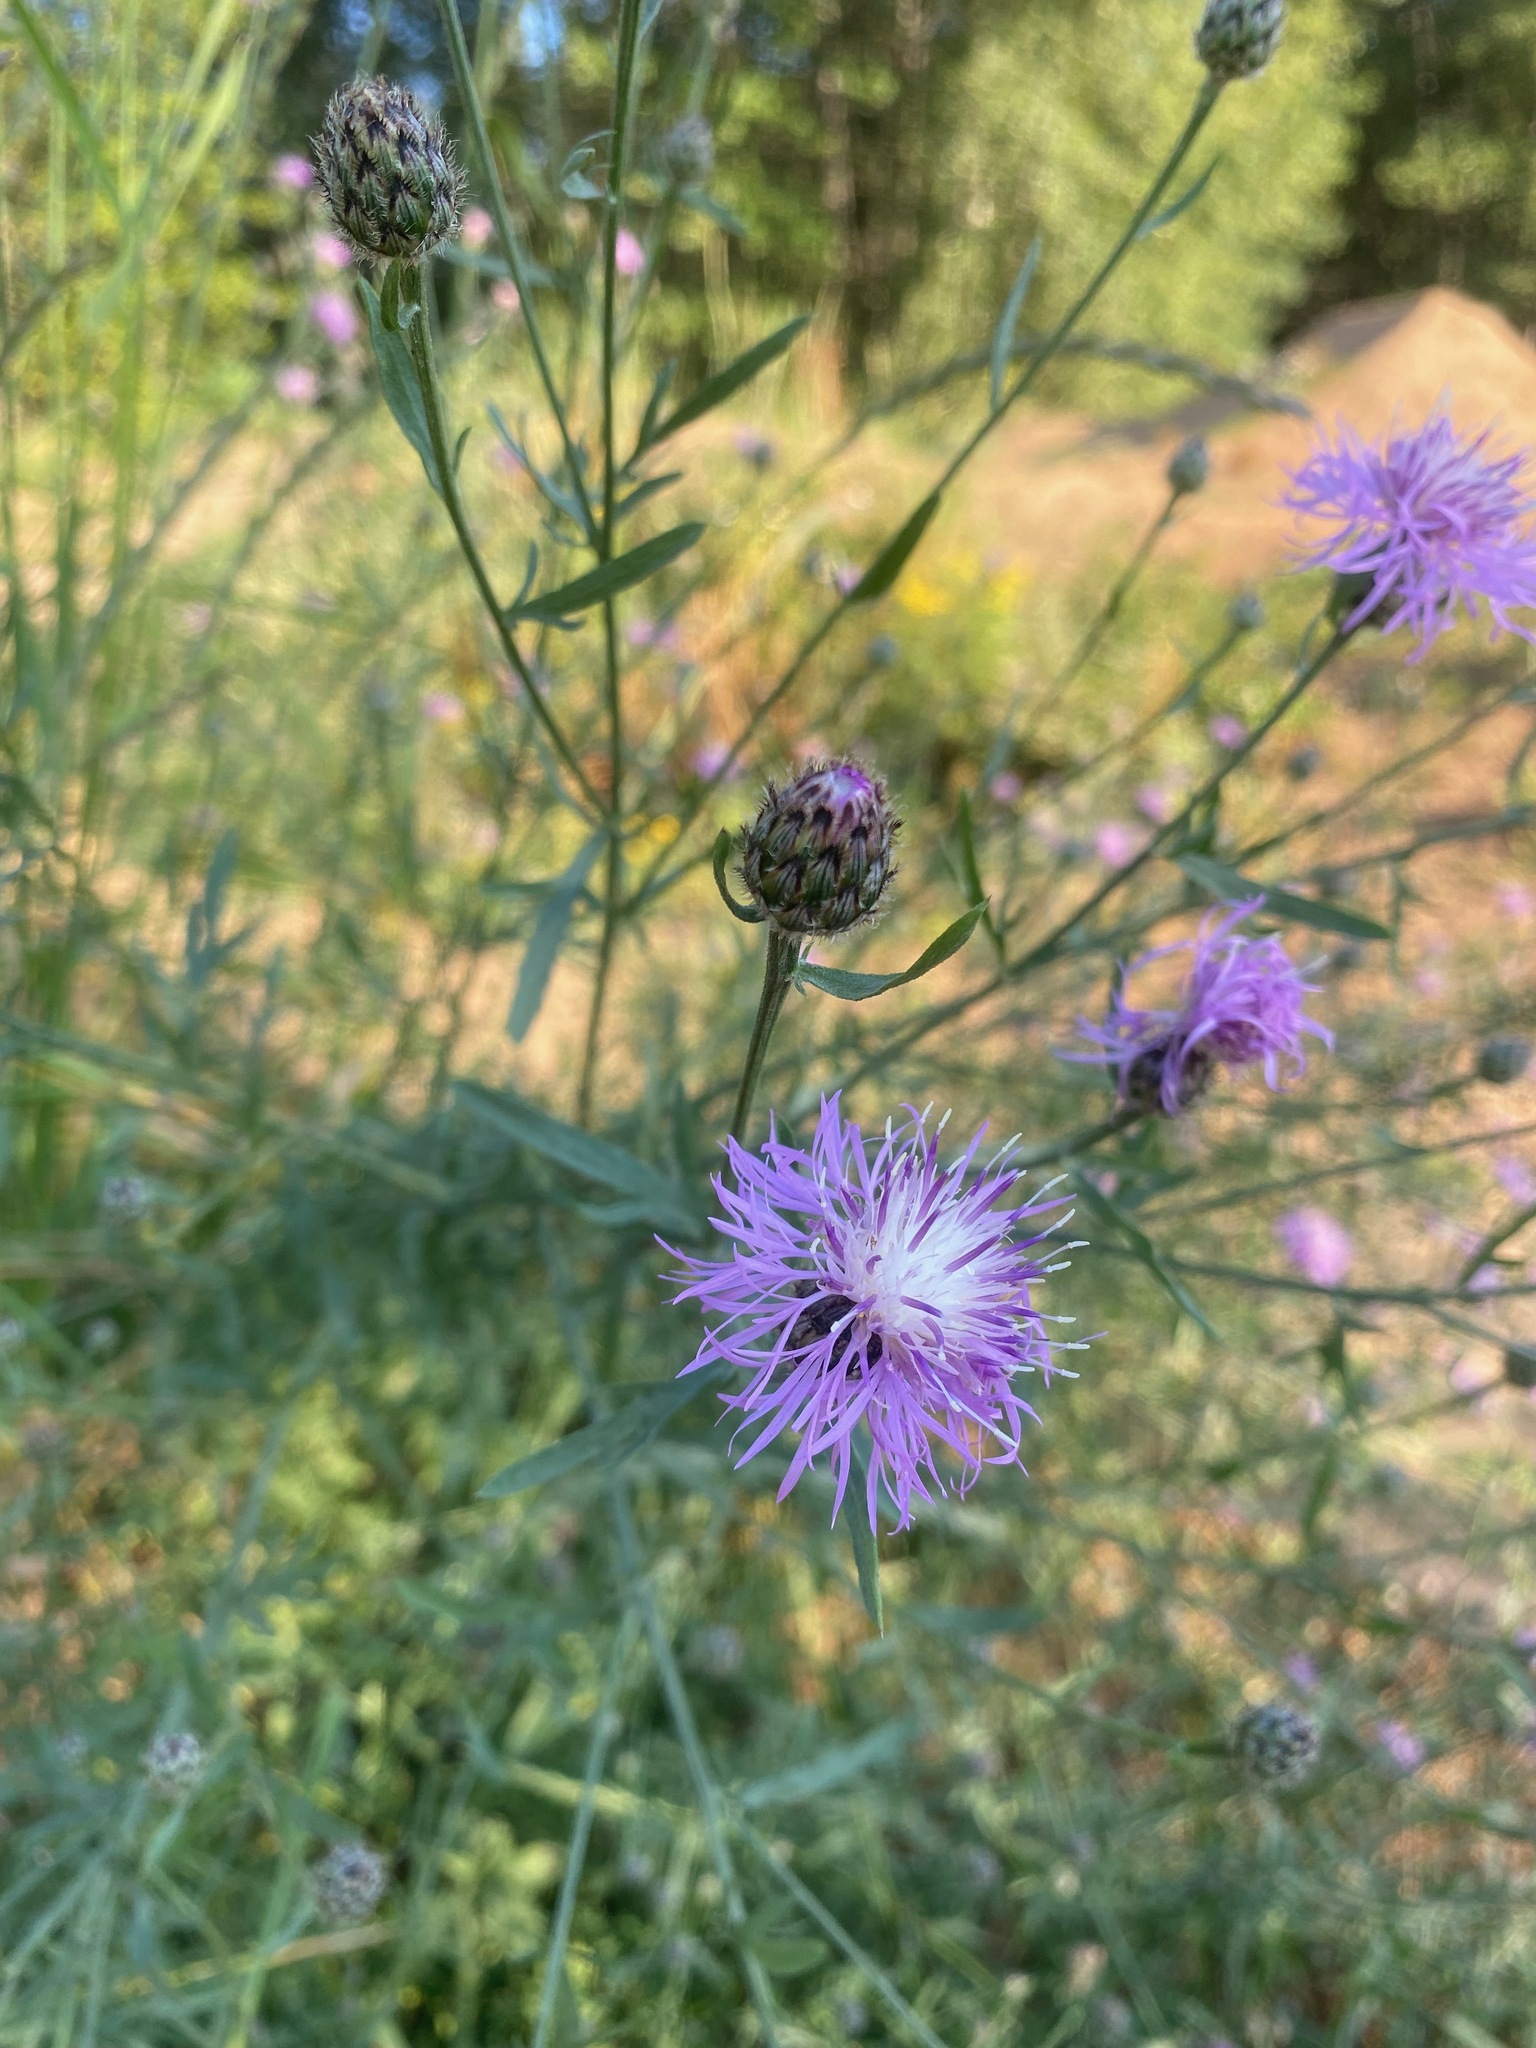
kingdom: Plantae
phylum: Tracheophyta
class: Magnoliopsida
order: Asterales
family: Asteraceae
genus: Centaurea
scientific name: Centaurea stoebe
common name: Spotted knapweed
